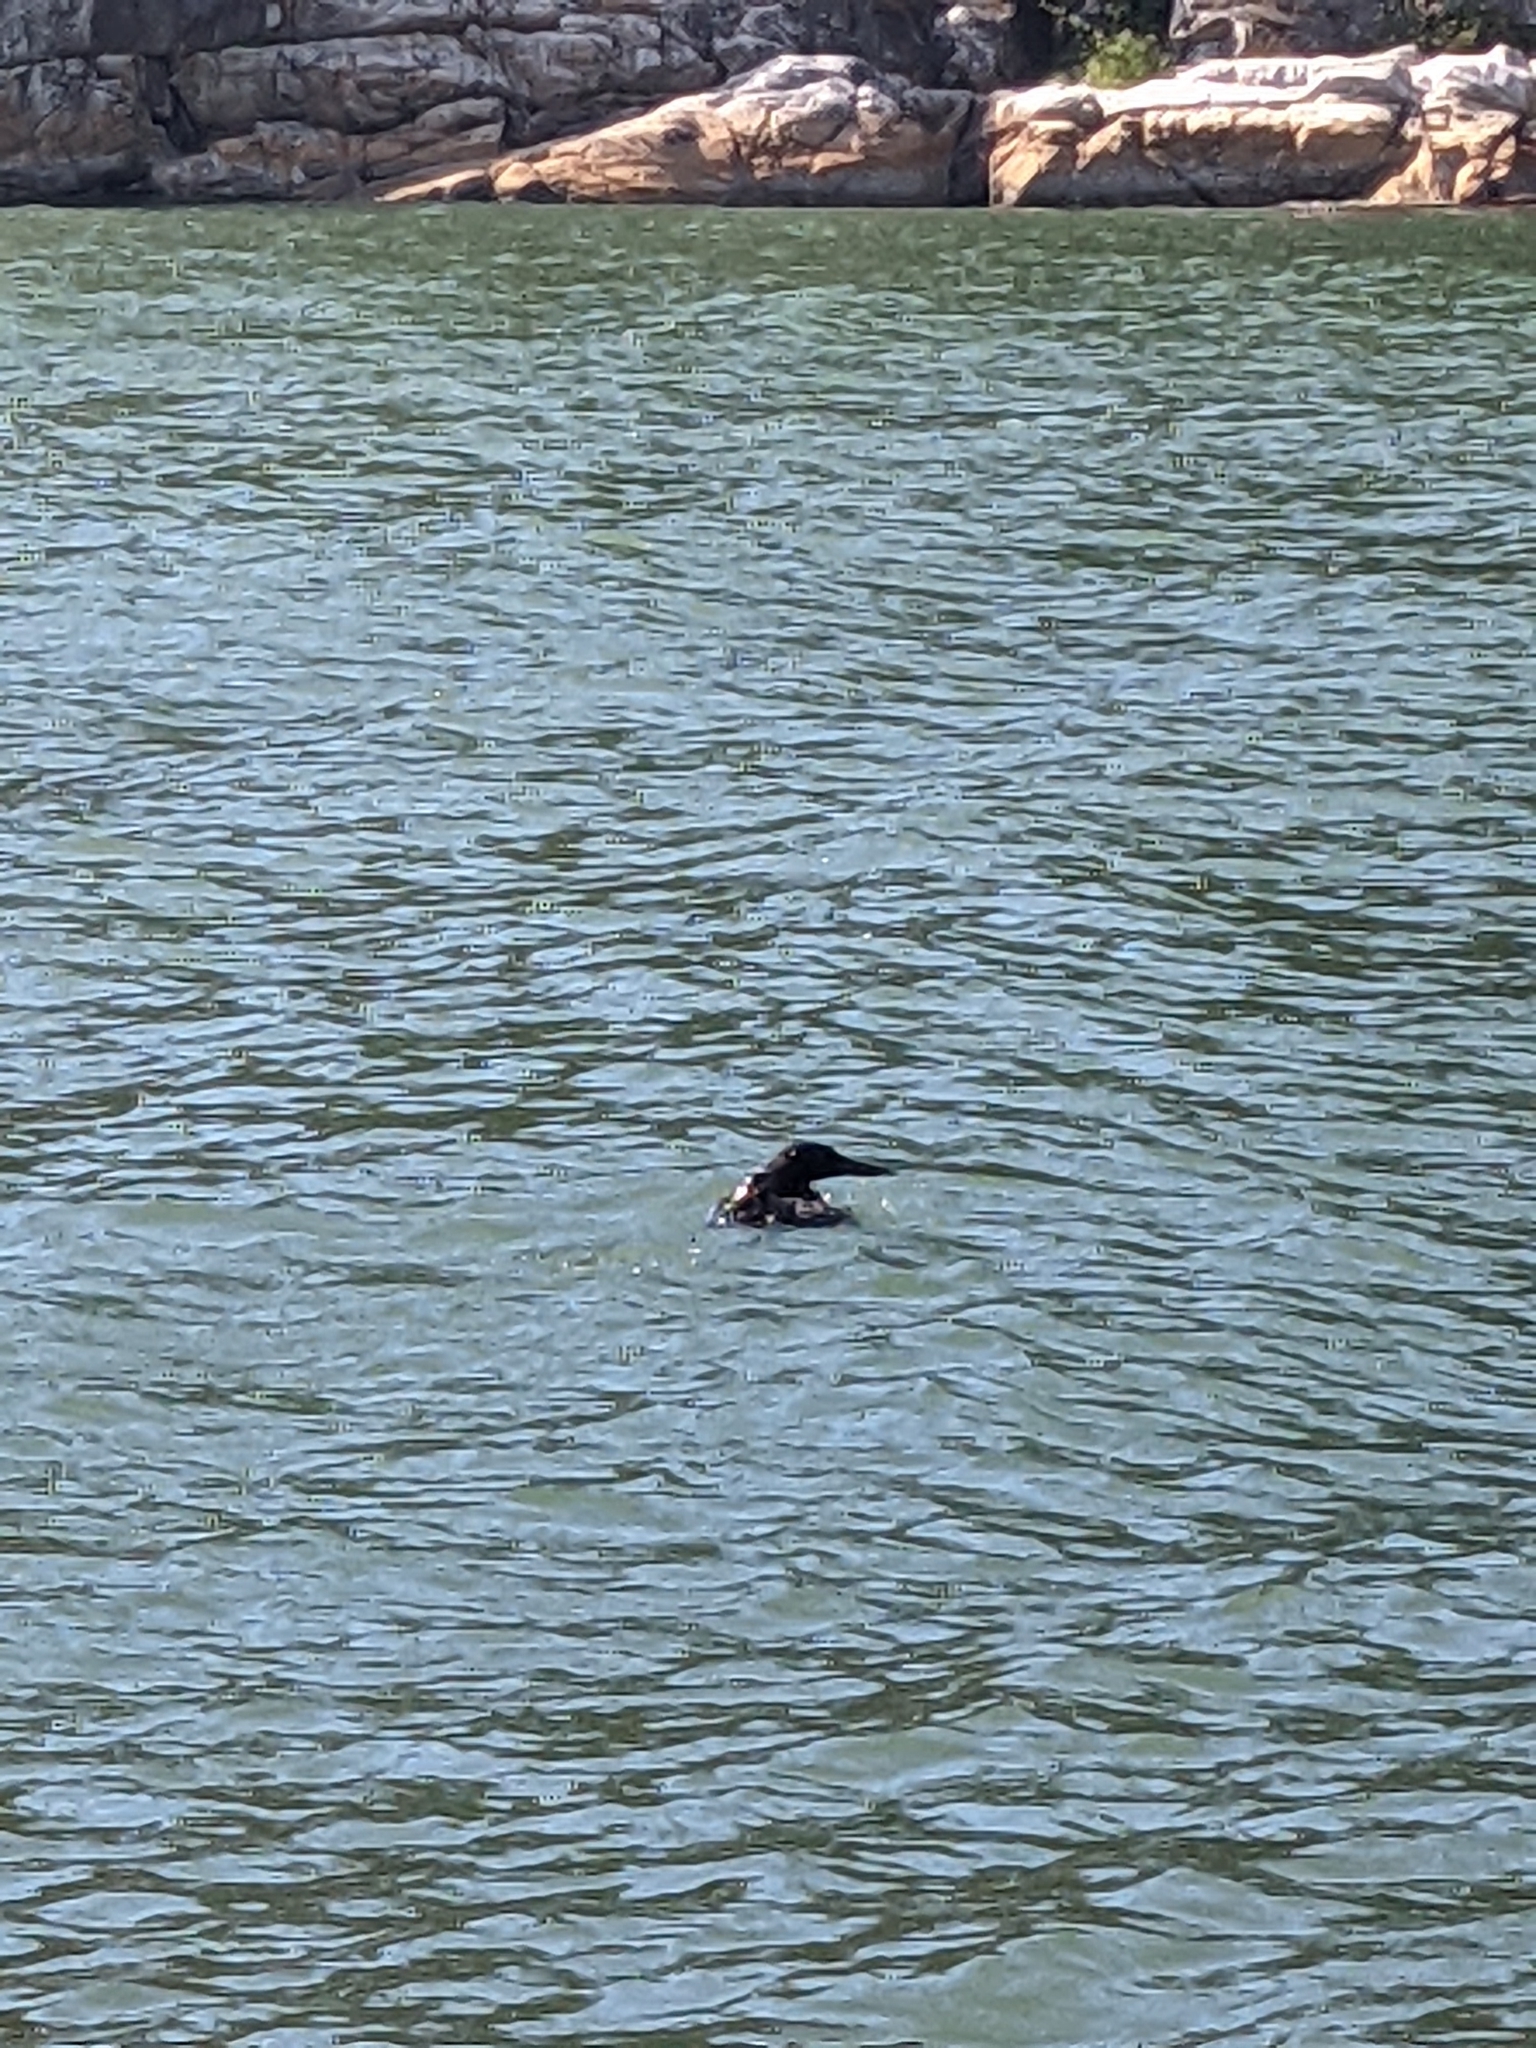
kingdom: Animalia
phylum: Chordata
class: Aves
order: Gaviiformes
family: Gaviidae
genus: Gavia
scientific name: Gavia immer
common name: Common loon
